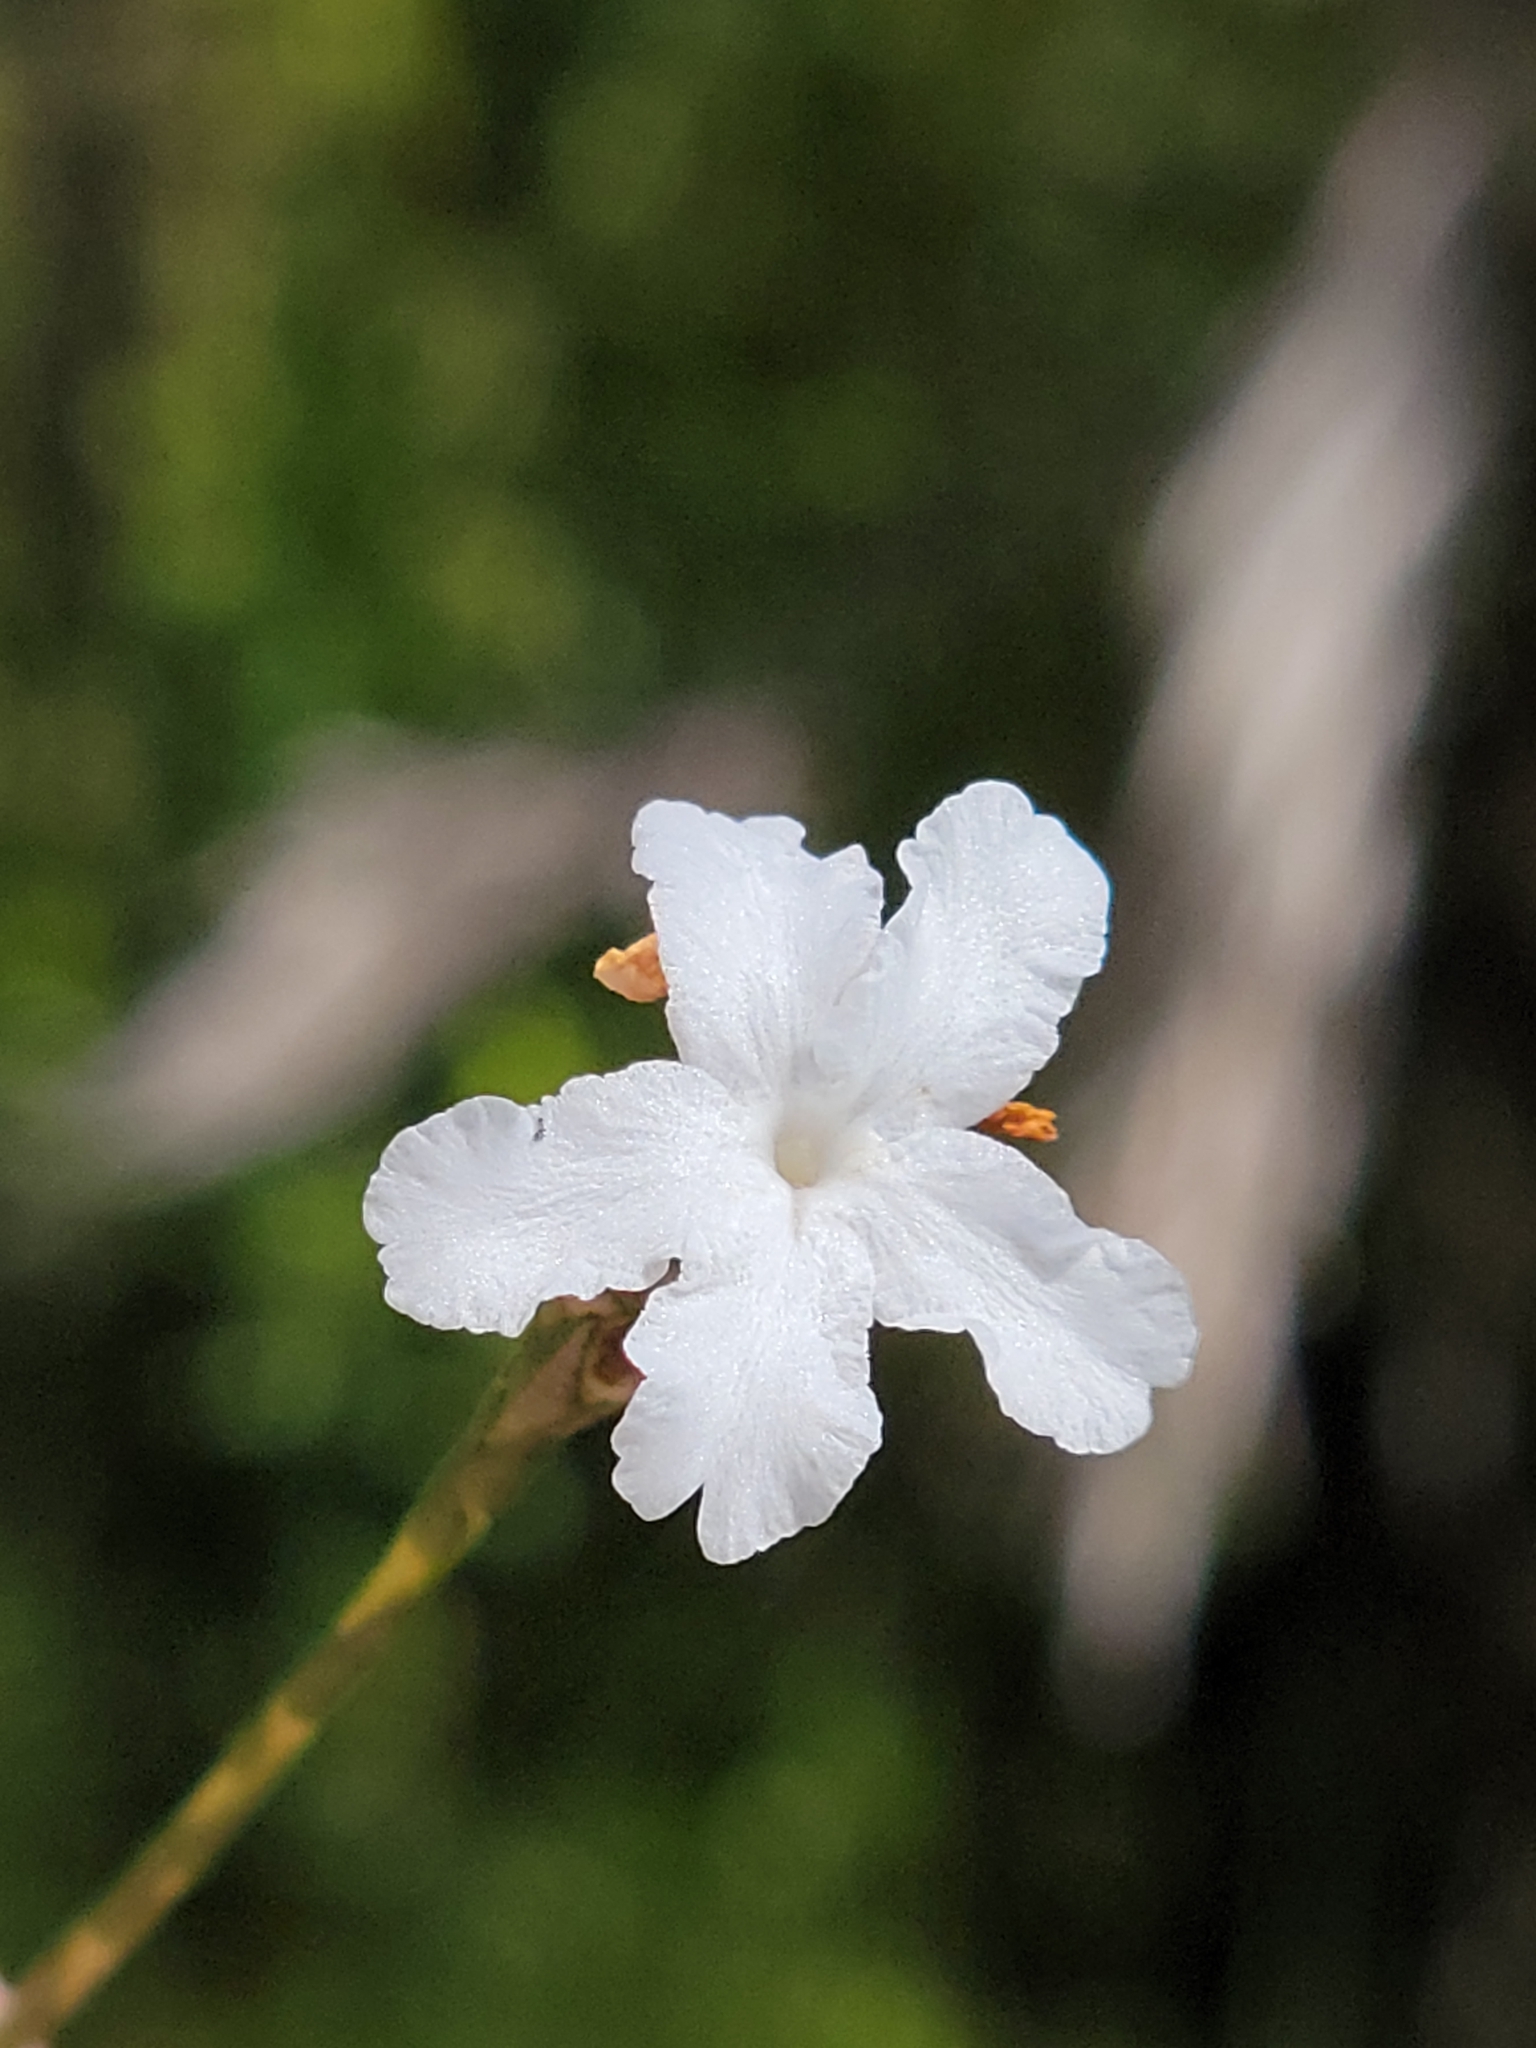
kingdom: Plantae
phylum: Tracheophyta
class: Magnoliopsida
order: Lamiales
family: Acanthaceae
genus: Elytraria
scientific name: Elytraria caroliniensis
